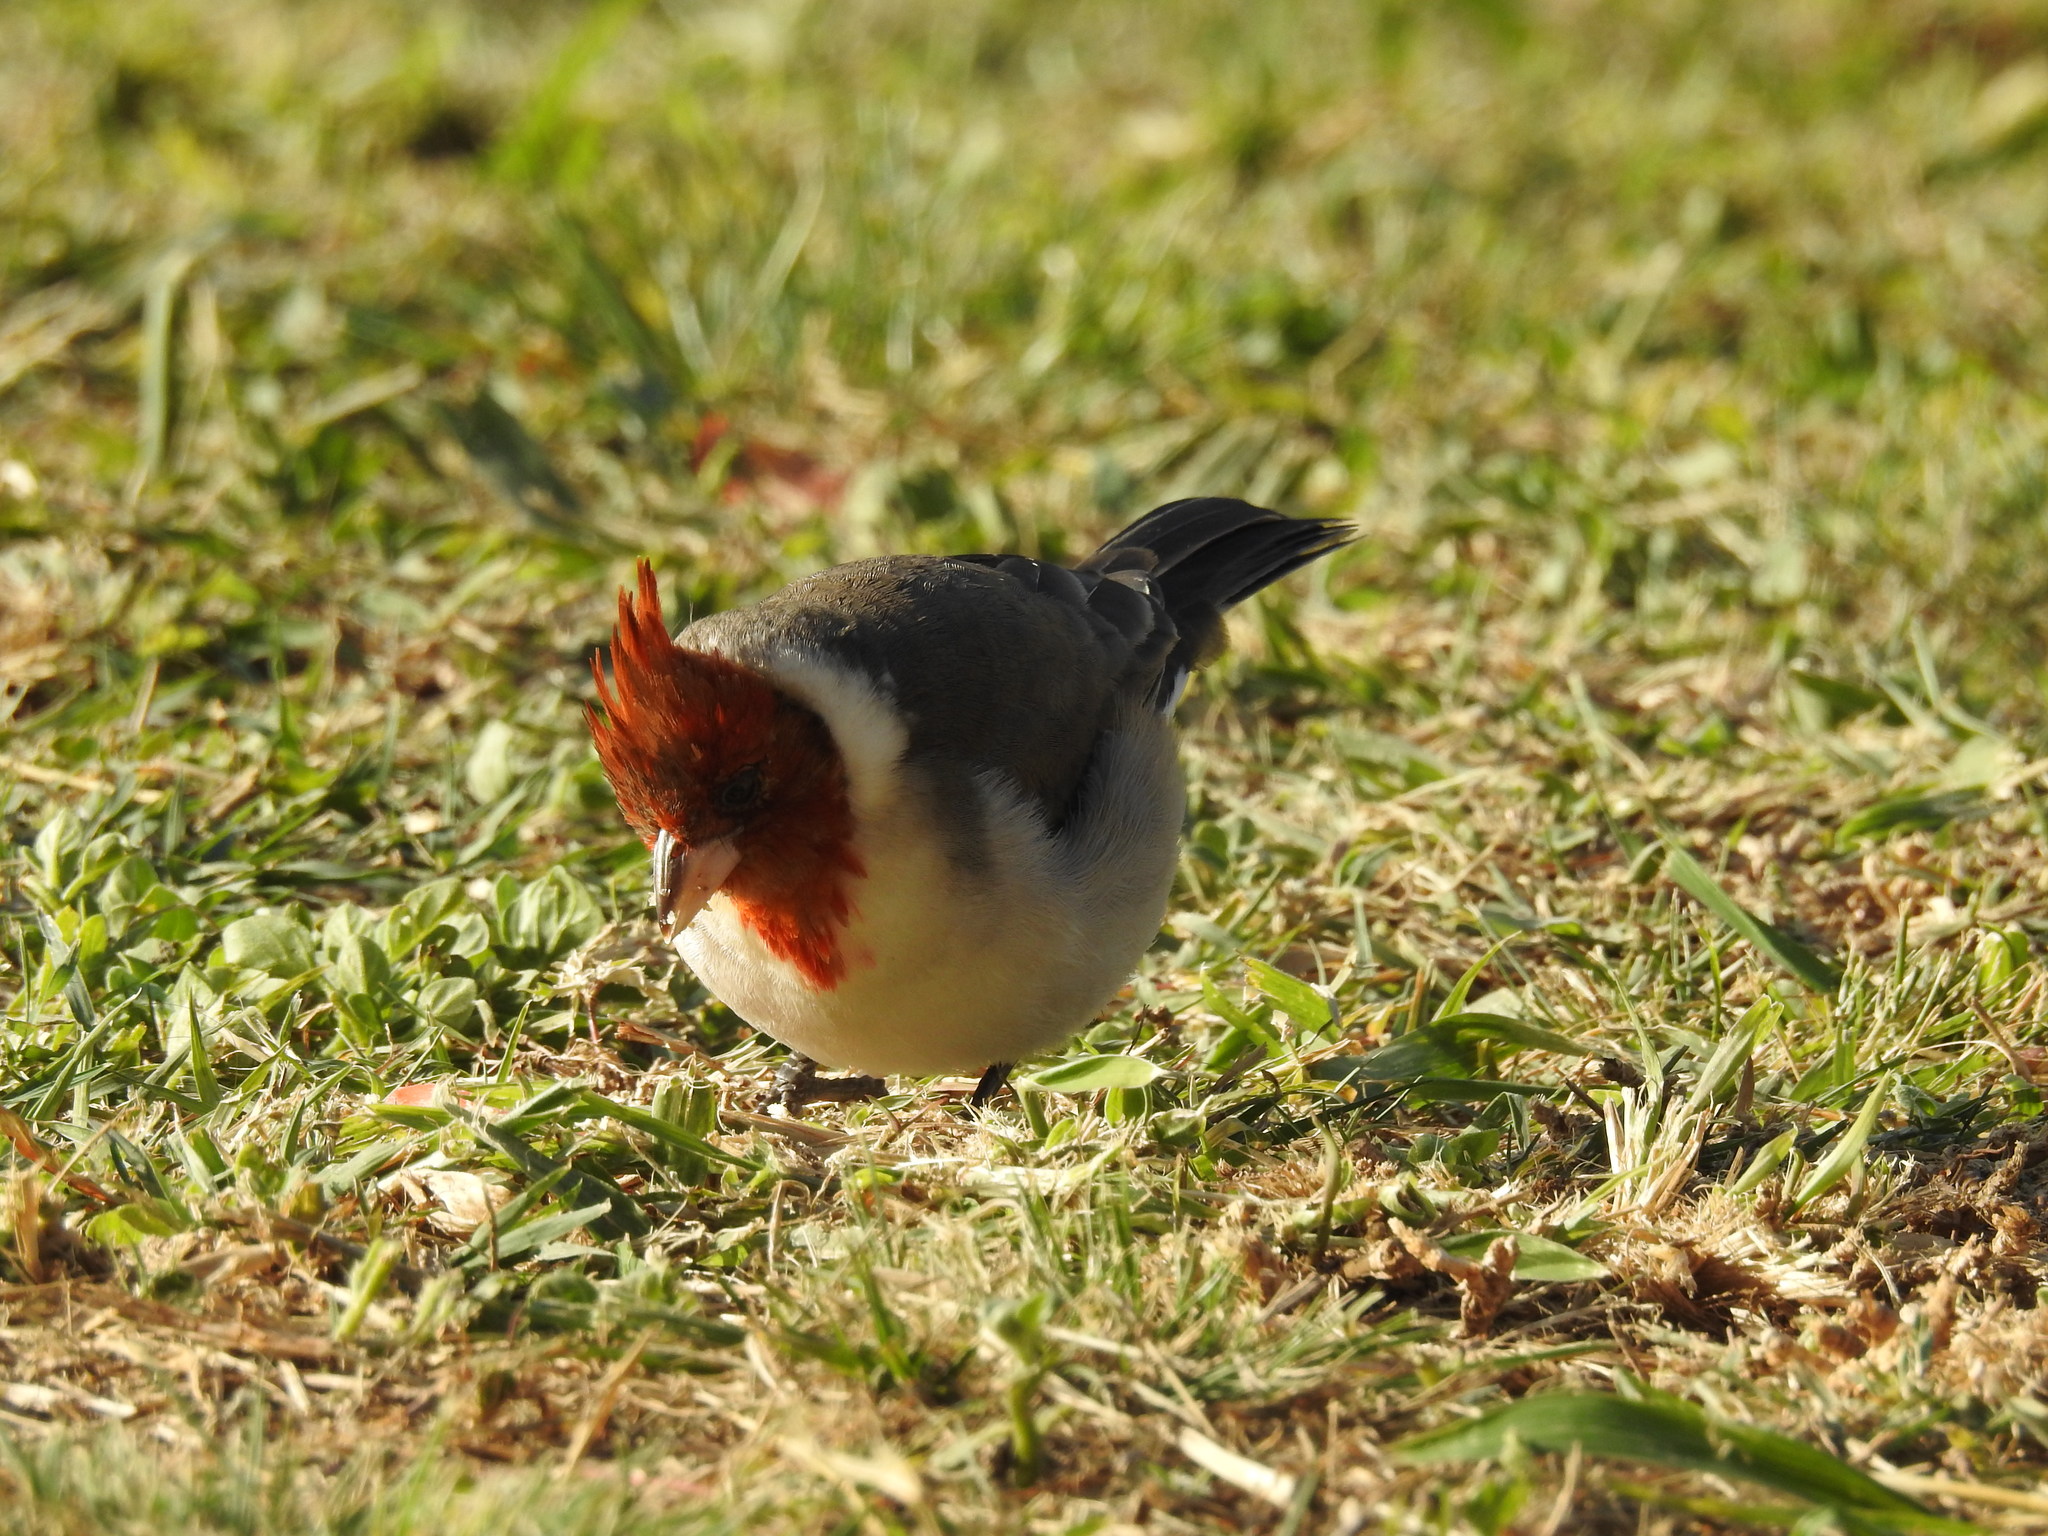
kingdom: Animalia
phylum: Chordata
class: Aves
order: Passeriformes
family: Thraupidae
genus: Paroaria
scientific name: Paroaria coronata
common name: Red-crested cardinal
